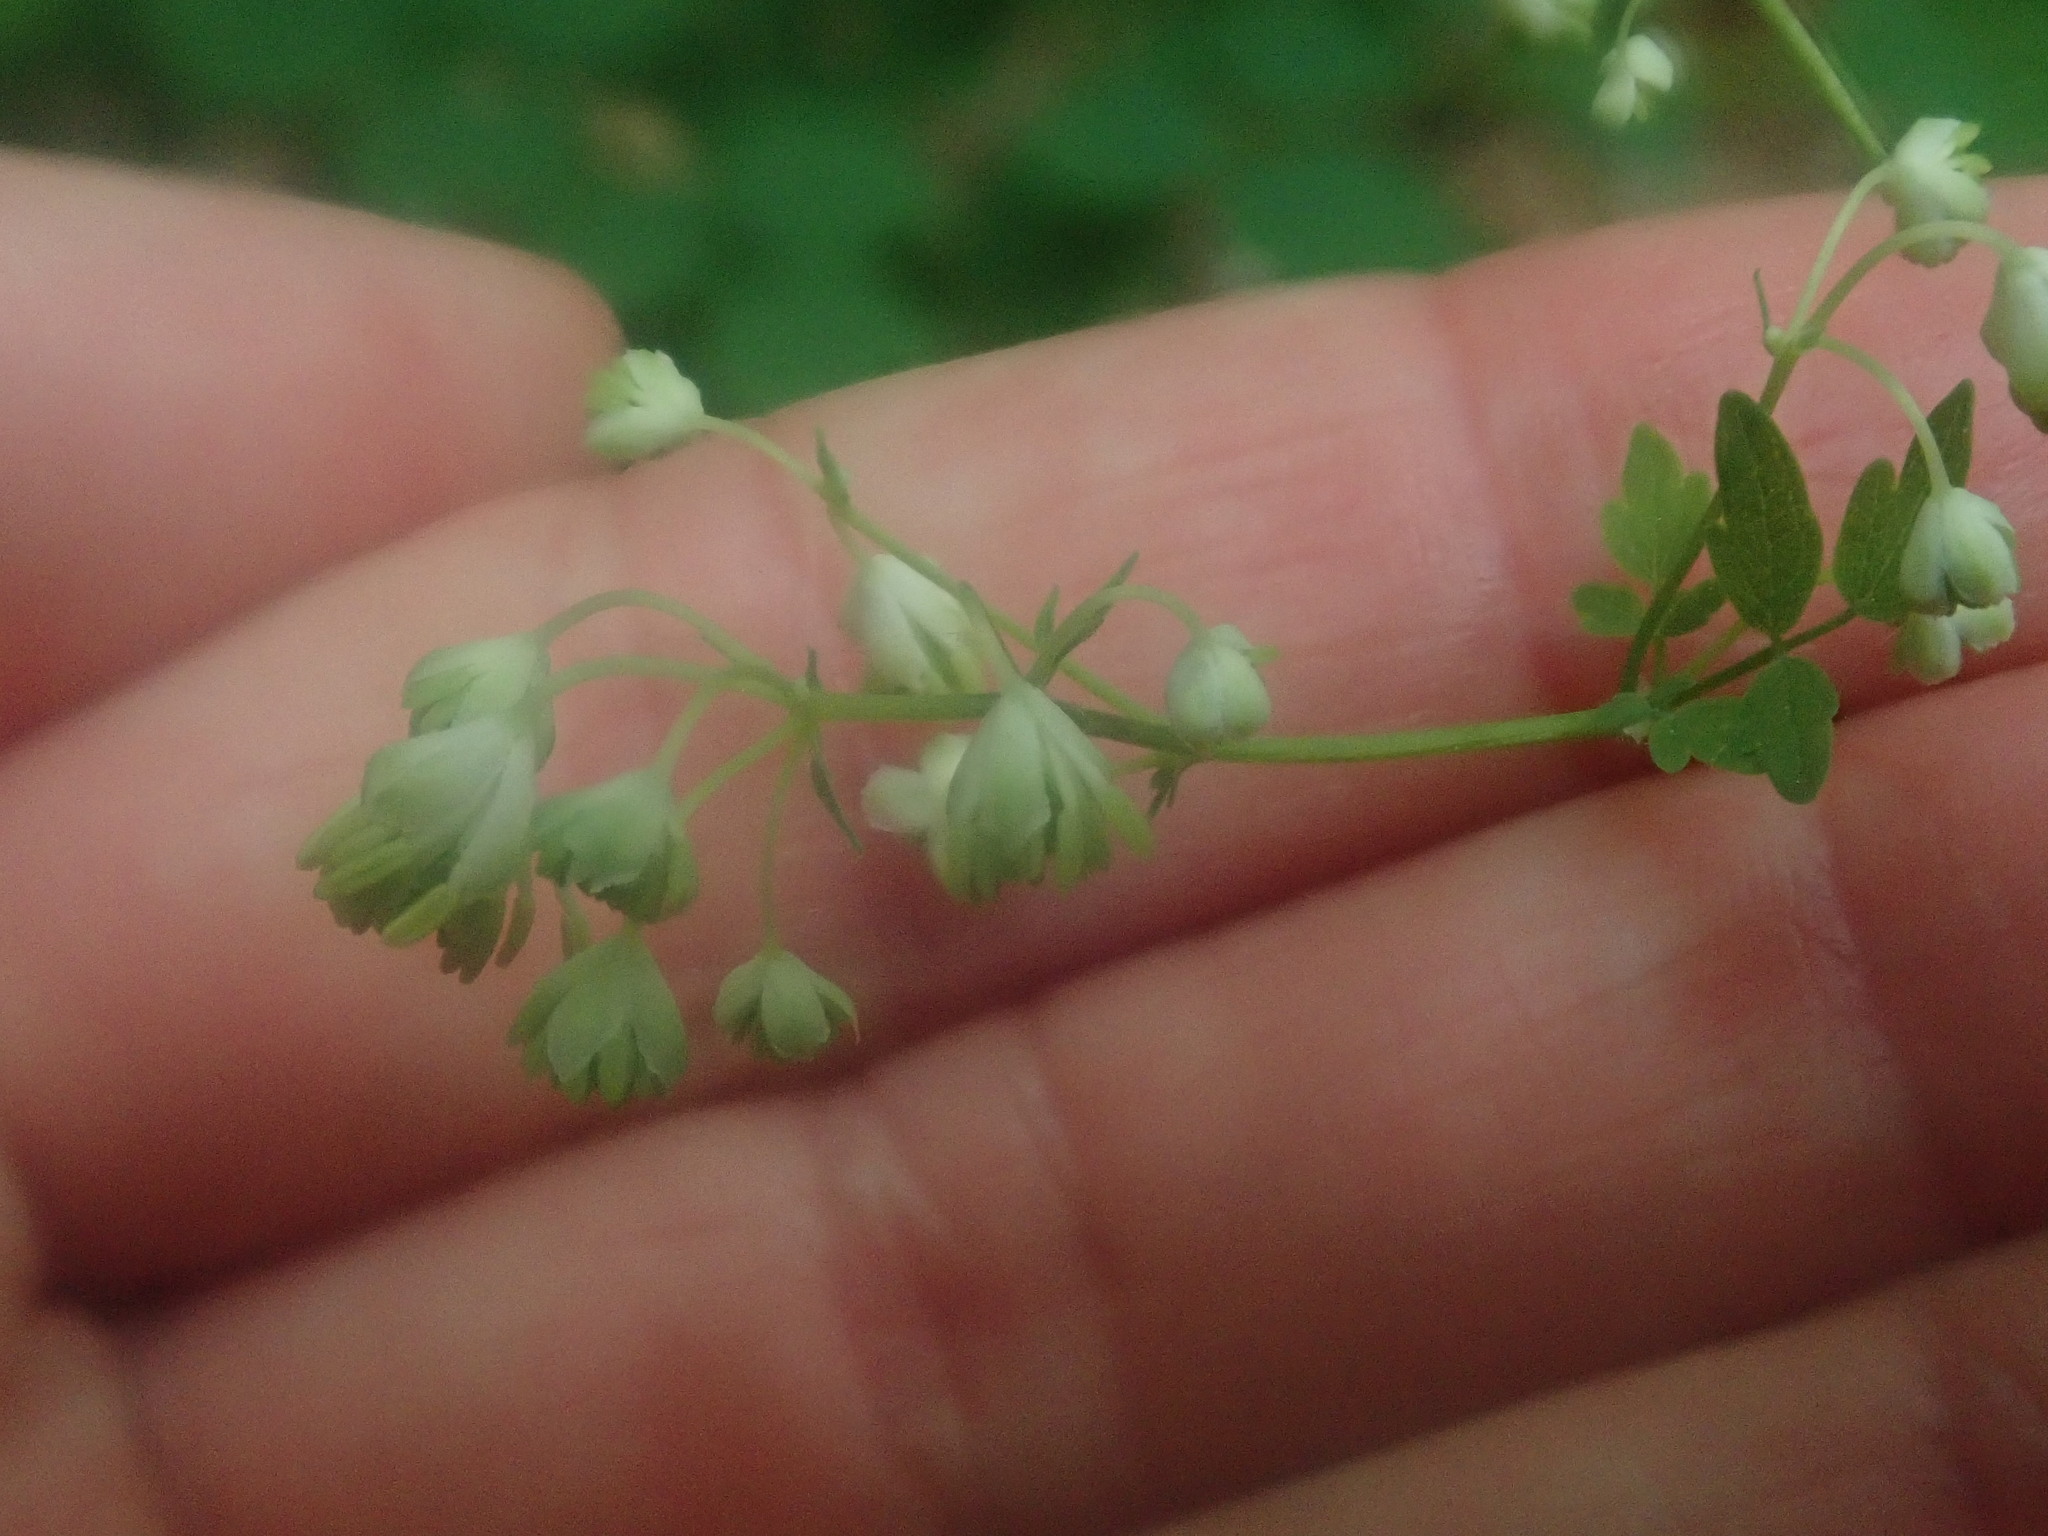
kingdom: Plantae
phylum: Tracheophyta
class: Magnoliopsida
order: Ranunculales
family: Ranunculaceae
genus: Thalictrum
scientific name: Thalictrum pubescens
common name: King-of-the-meadow
